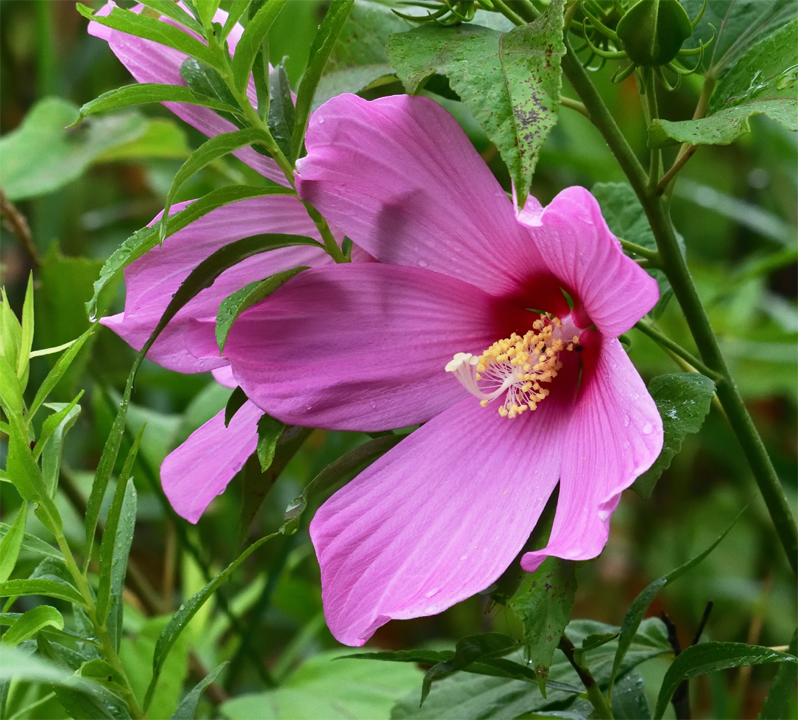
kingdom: Plantae
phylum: Tracheophyta
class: Magnoliopsida
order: Malvales
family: Malvaceae
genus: Hibiscus
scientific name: Hibiscus moscheutos
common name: Common rose-mallow
